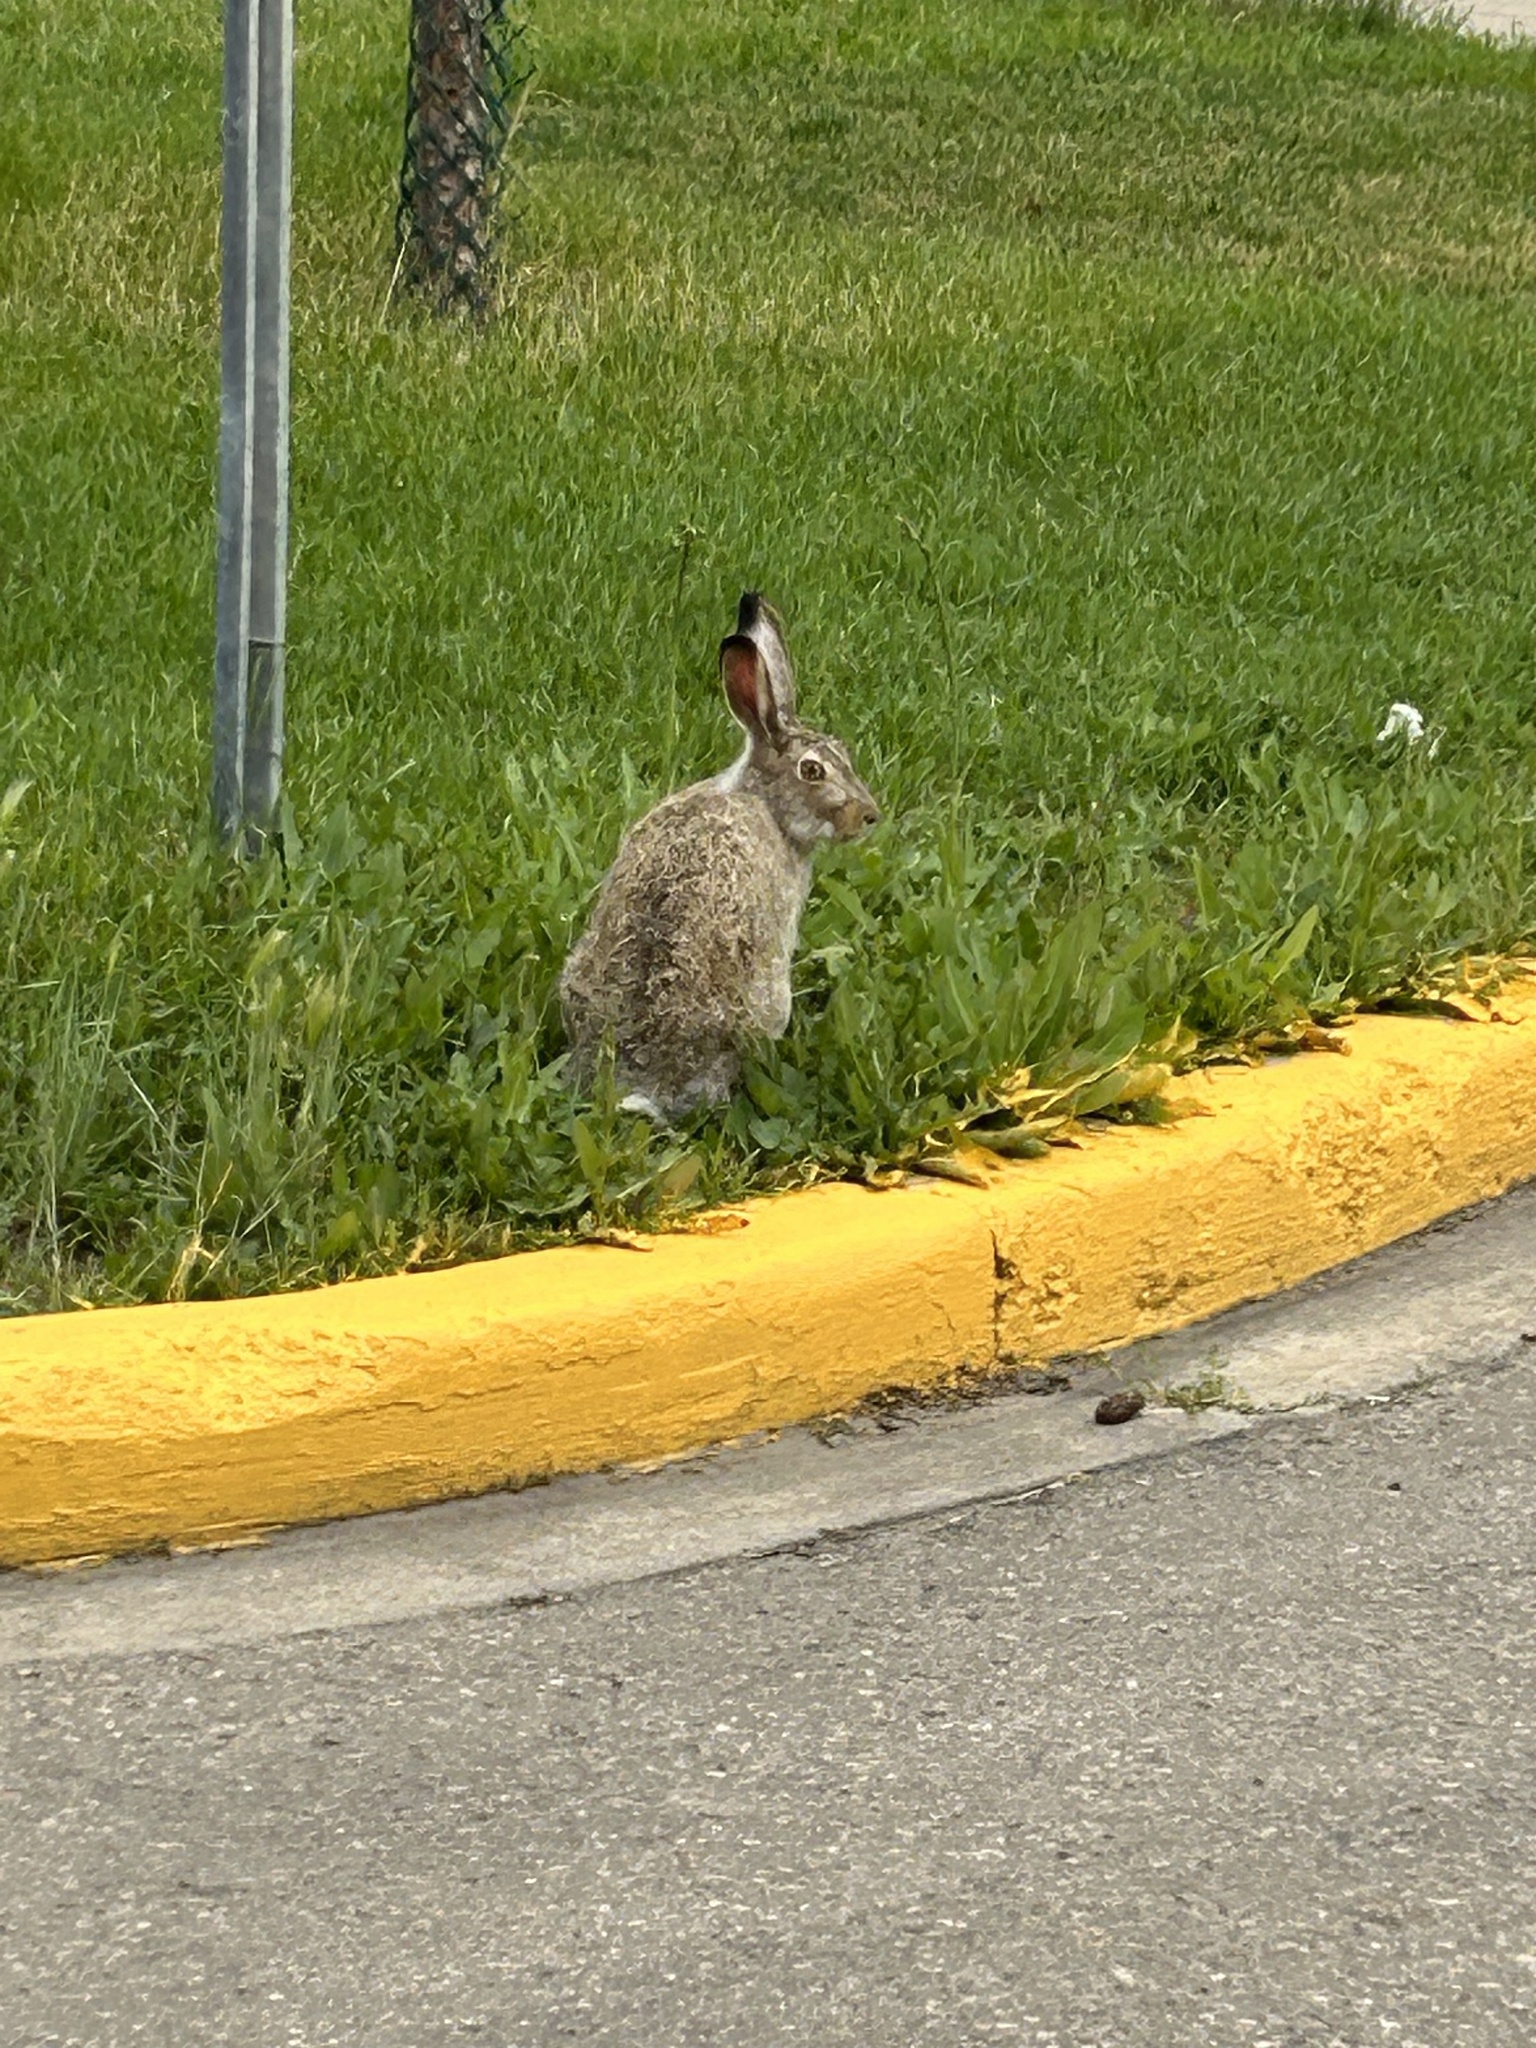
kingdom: Animalia
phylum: Chordata
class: Mammalia
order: Lagomorpha
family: Leporidae
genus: Lepus
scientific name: Lepus townsendii
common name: White-tailed jackrabbit
